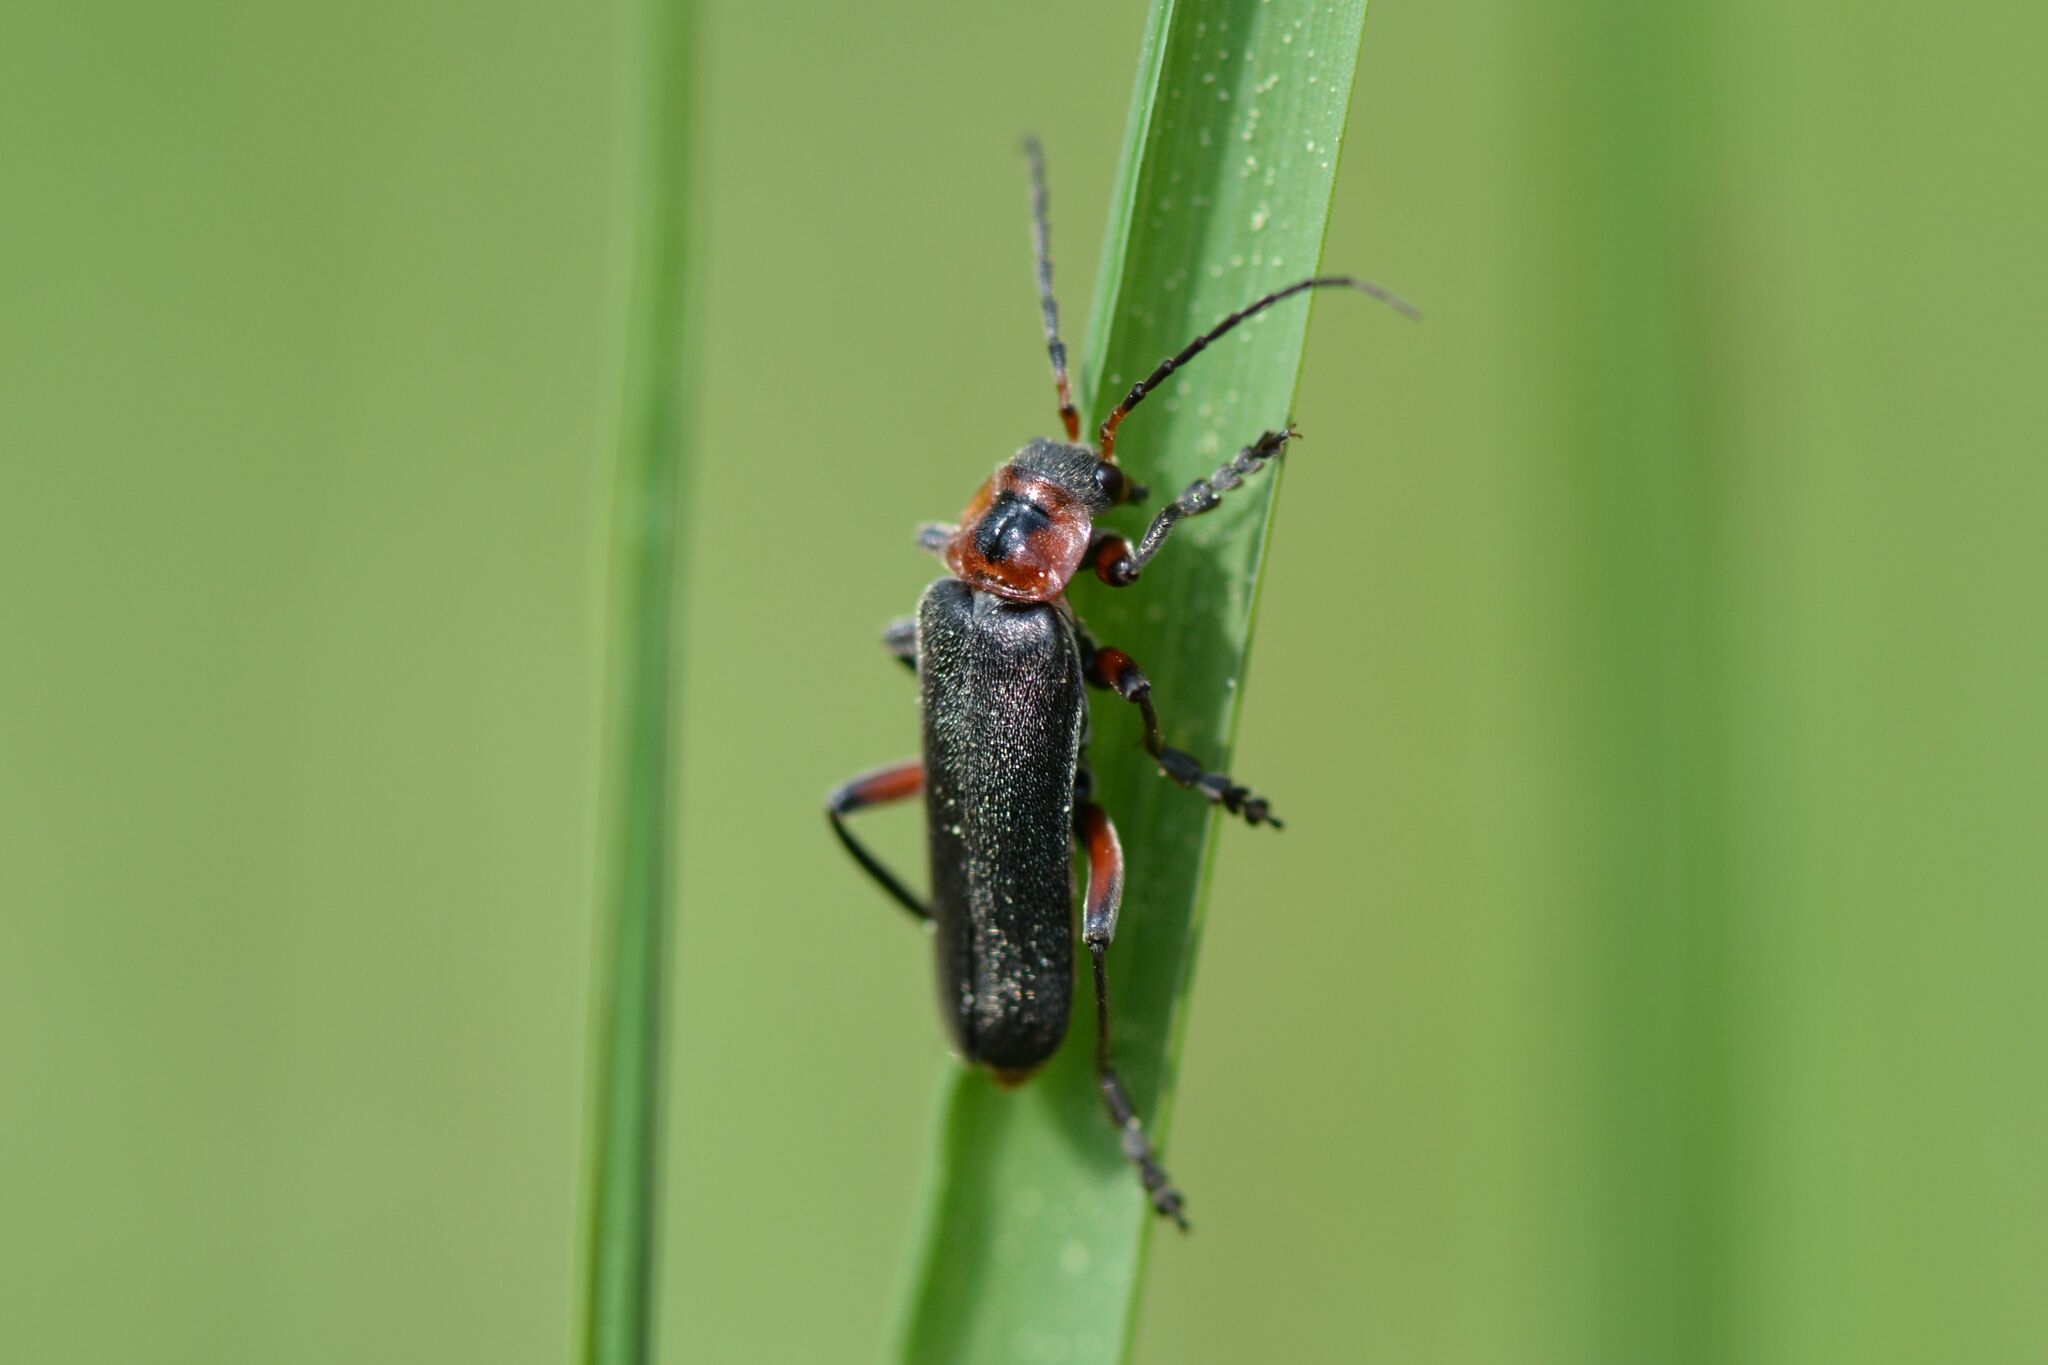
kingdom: Animalia
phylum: Arthropoda
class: Insecta
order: Coleoptera
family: Cantharidae
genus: Cantharis
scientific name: Cantharis rustica
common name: Soldier beetle
